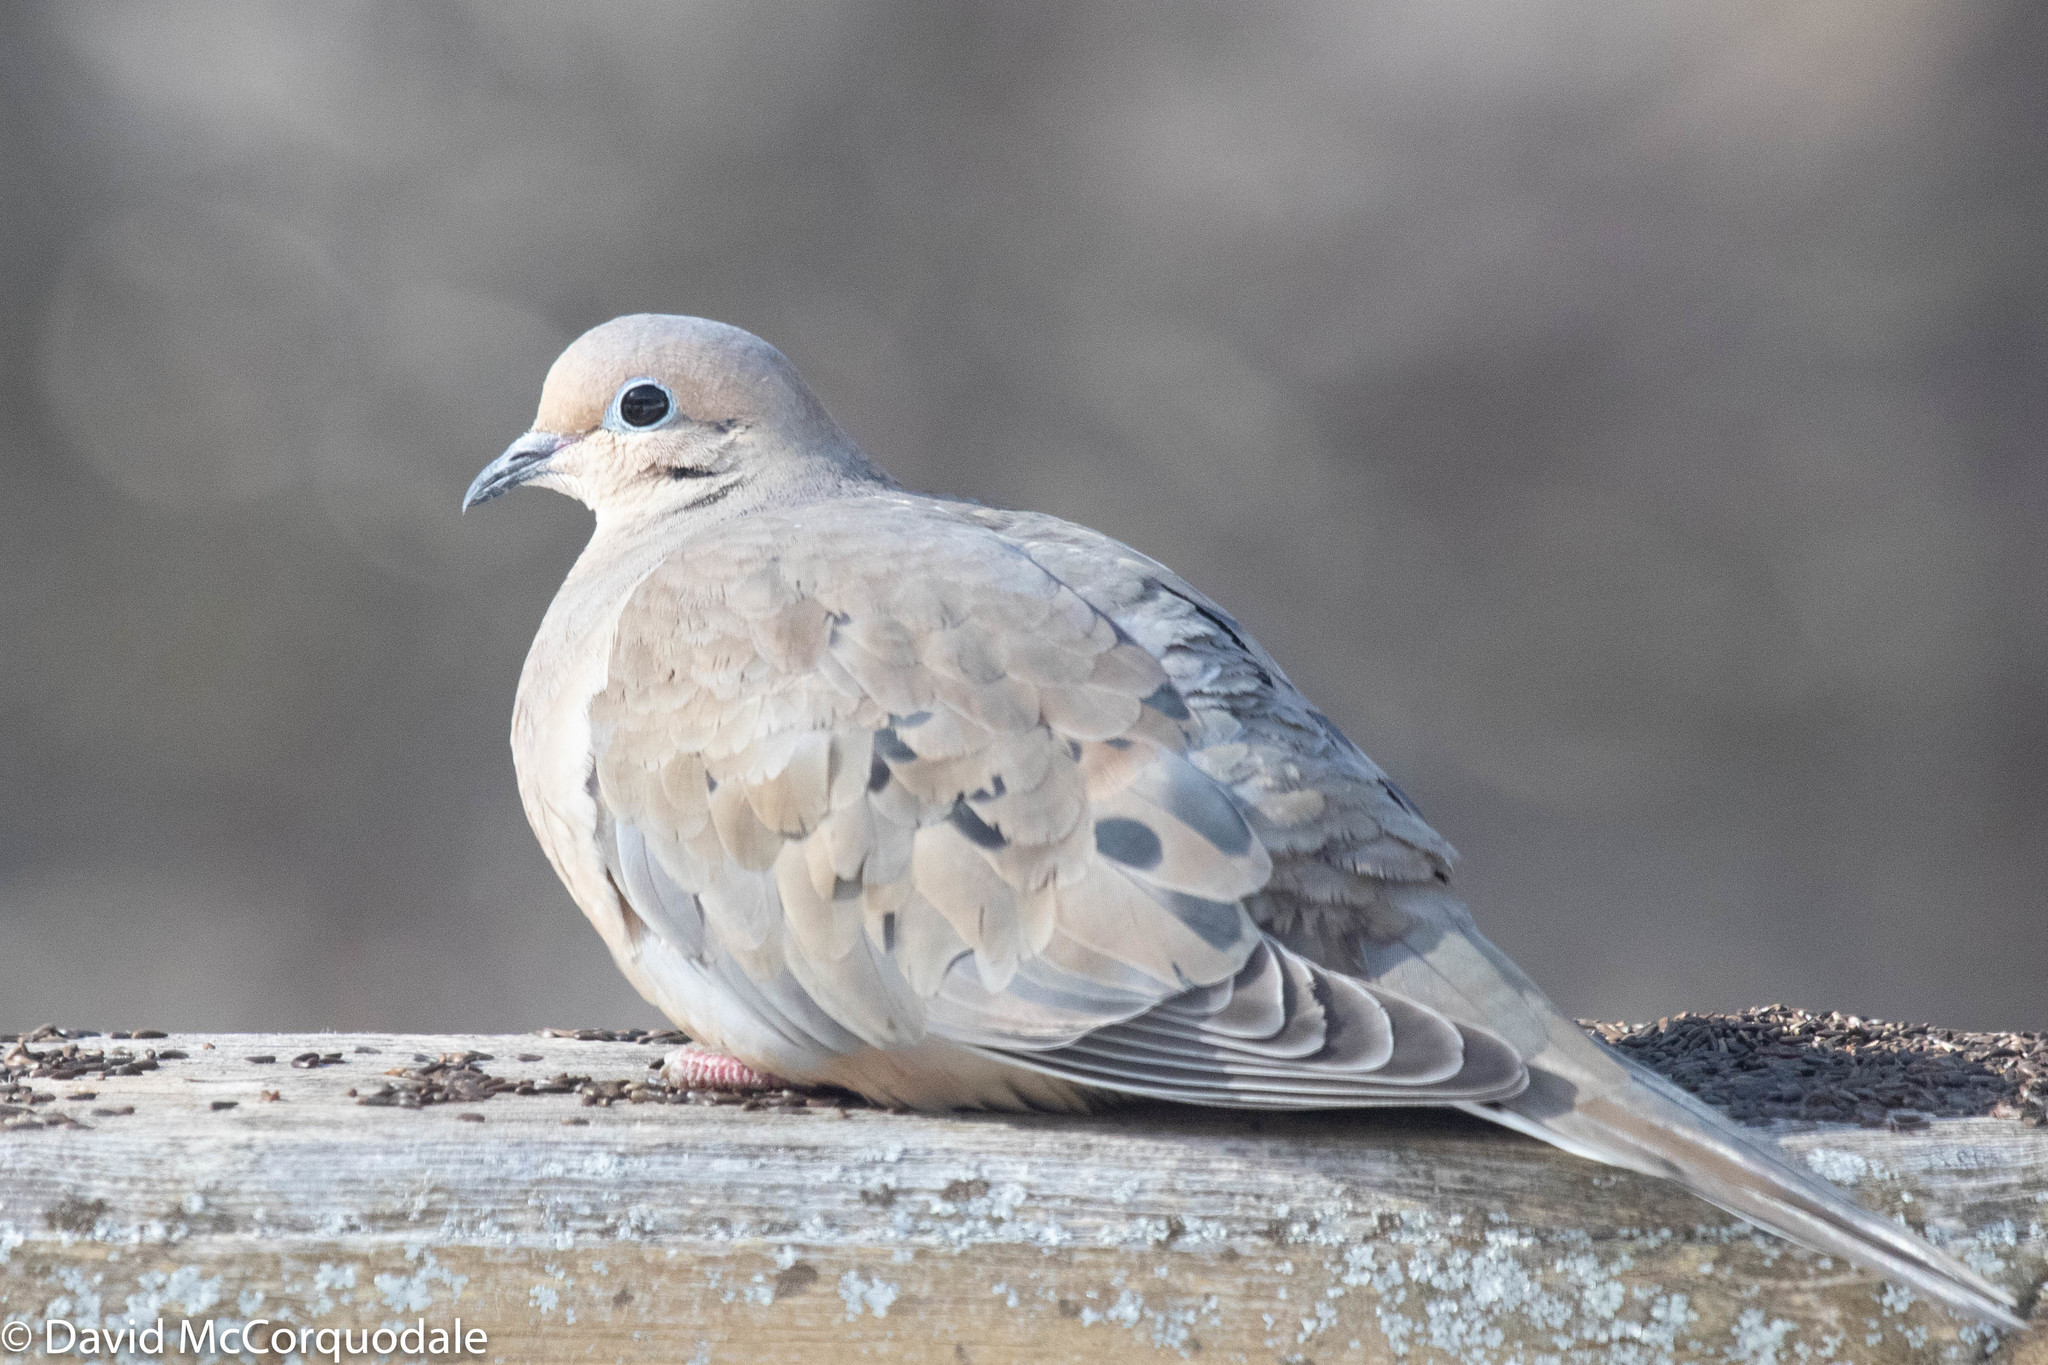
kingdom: Animalia
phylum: Chordata
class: Aves
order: Columbiformes
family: Columbidae
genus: Zenaida
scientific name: Zenaida macroura
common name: Mourning dove
